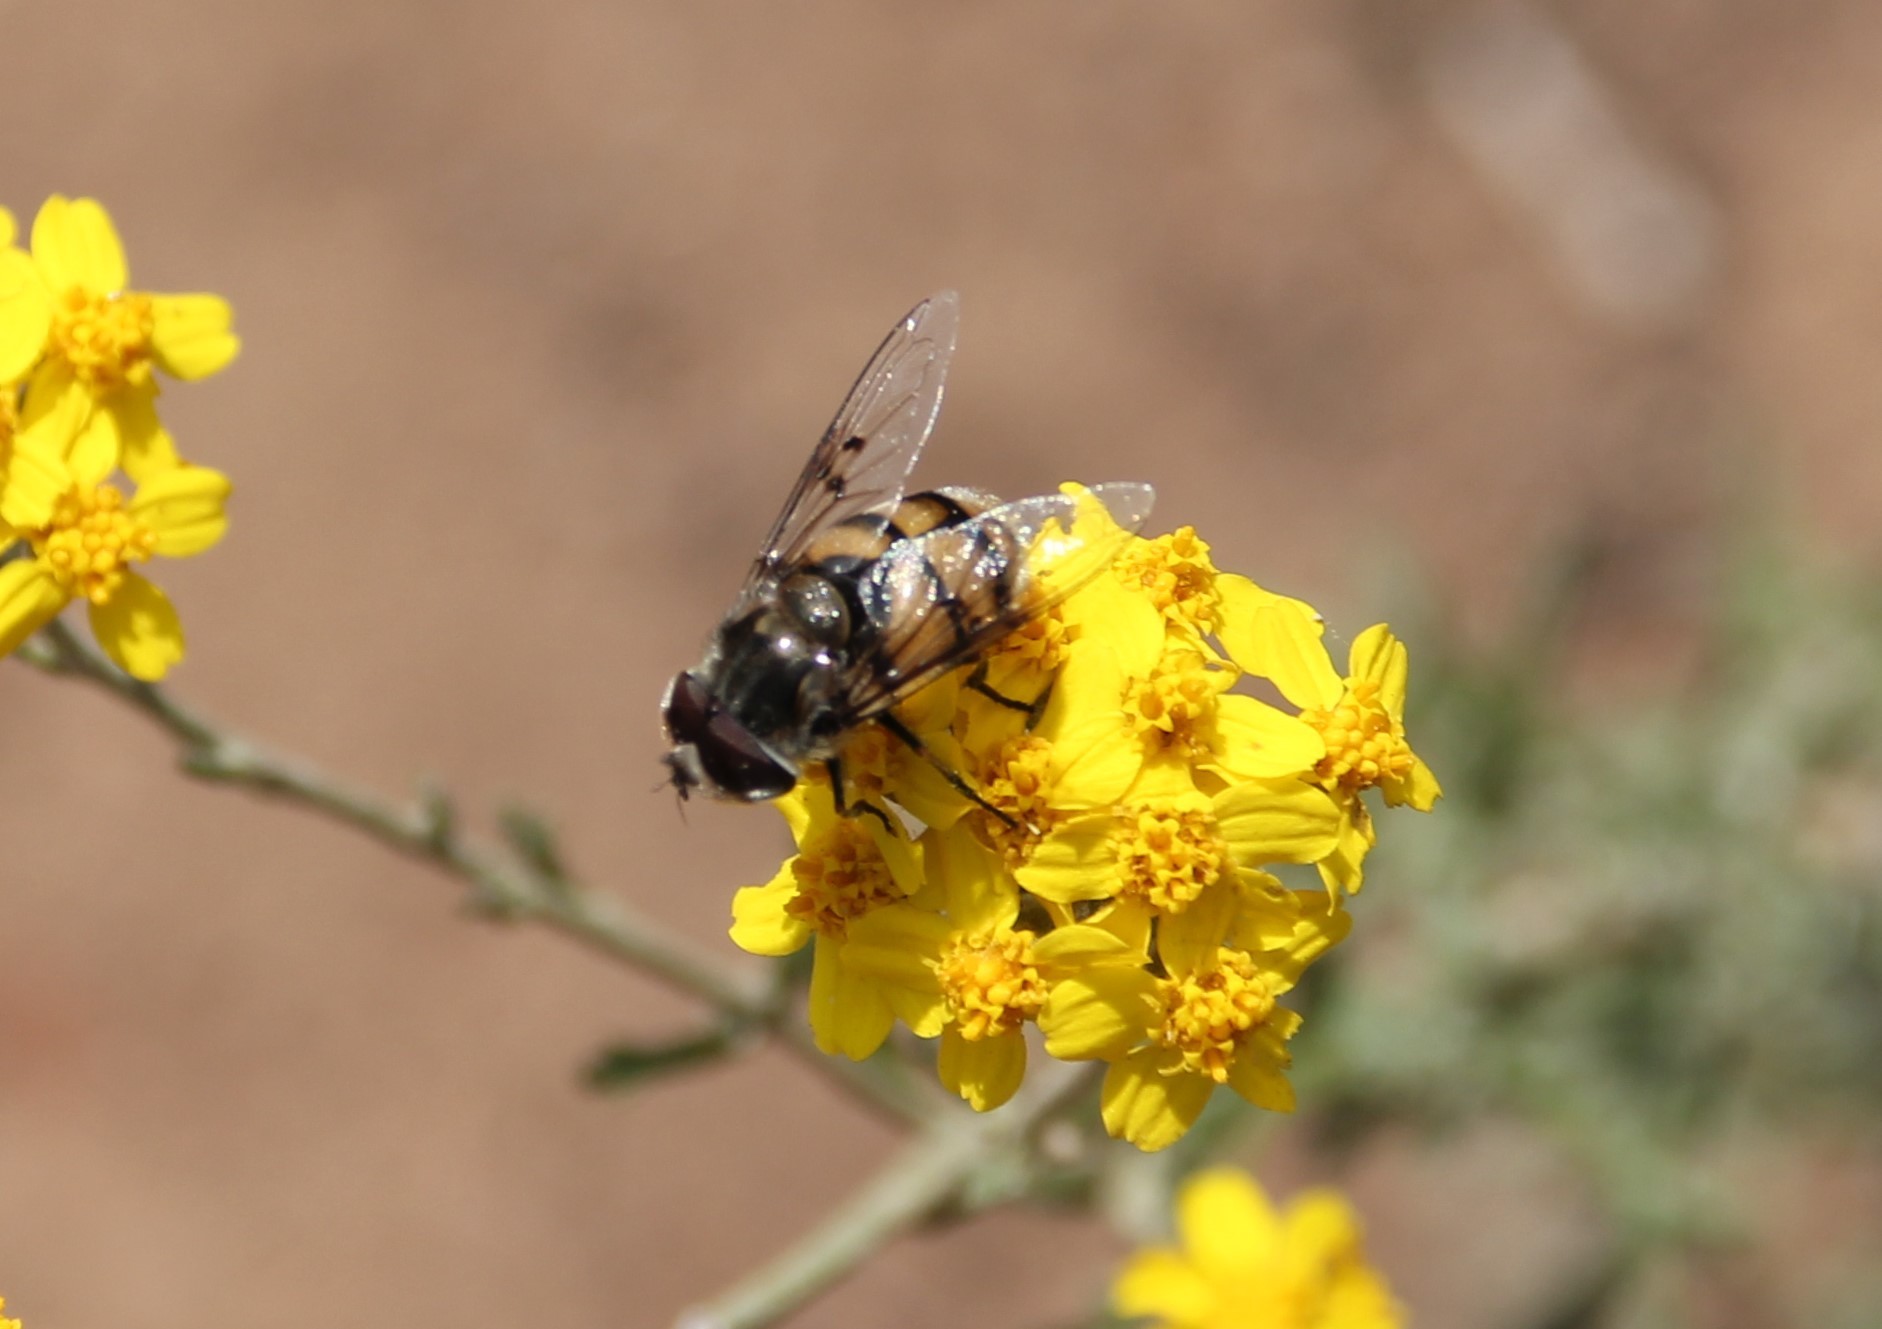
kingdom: Animalia
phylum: Arthropoda
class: Insecta
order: Diptera
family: Syrphidae
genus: Copestylum
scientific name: Copestylum avidum
